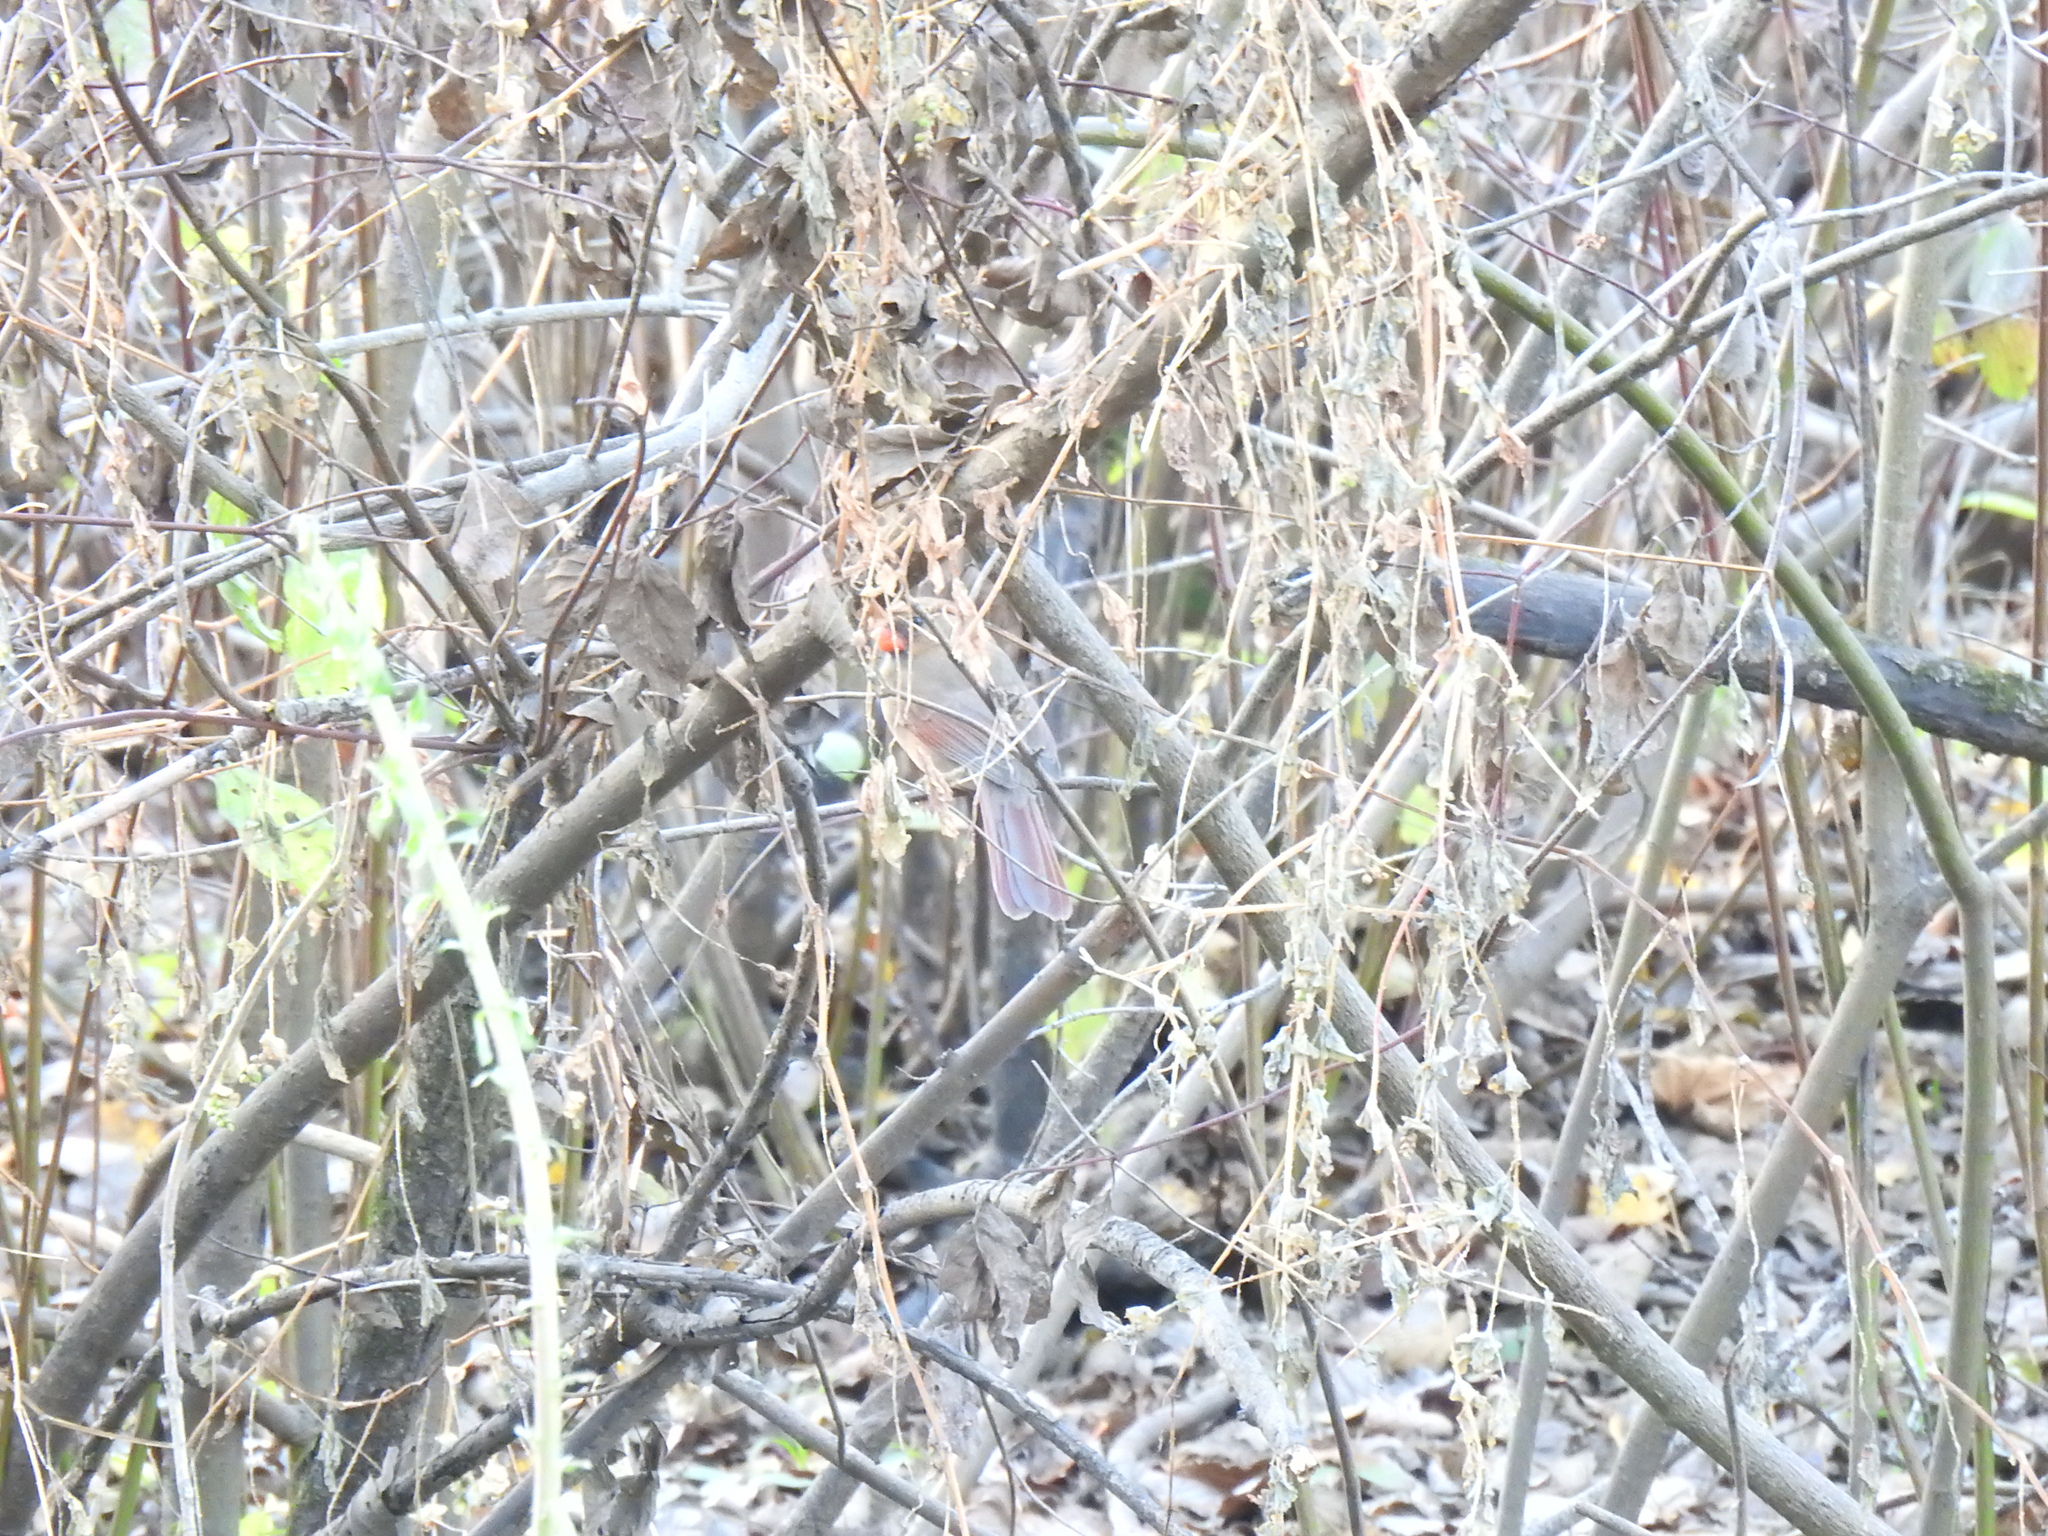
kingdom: Animalia
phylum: Chordata
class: Aves
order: Passeriformes
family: Cardinalidae
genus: Cardinalis
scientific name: Cardinalis cardinalis
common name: Northern cardinal
